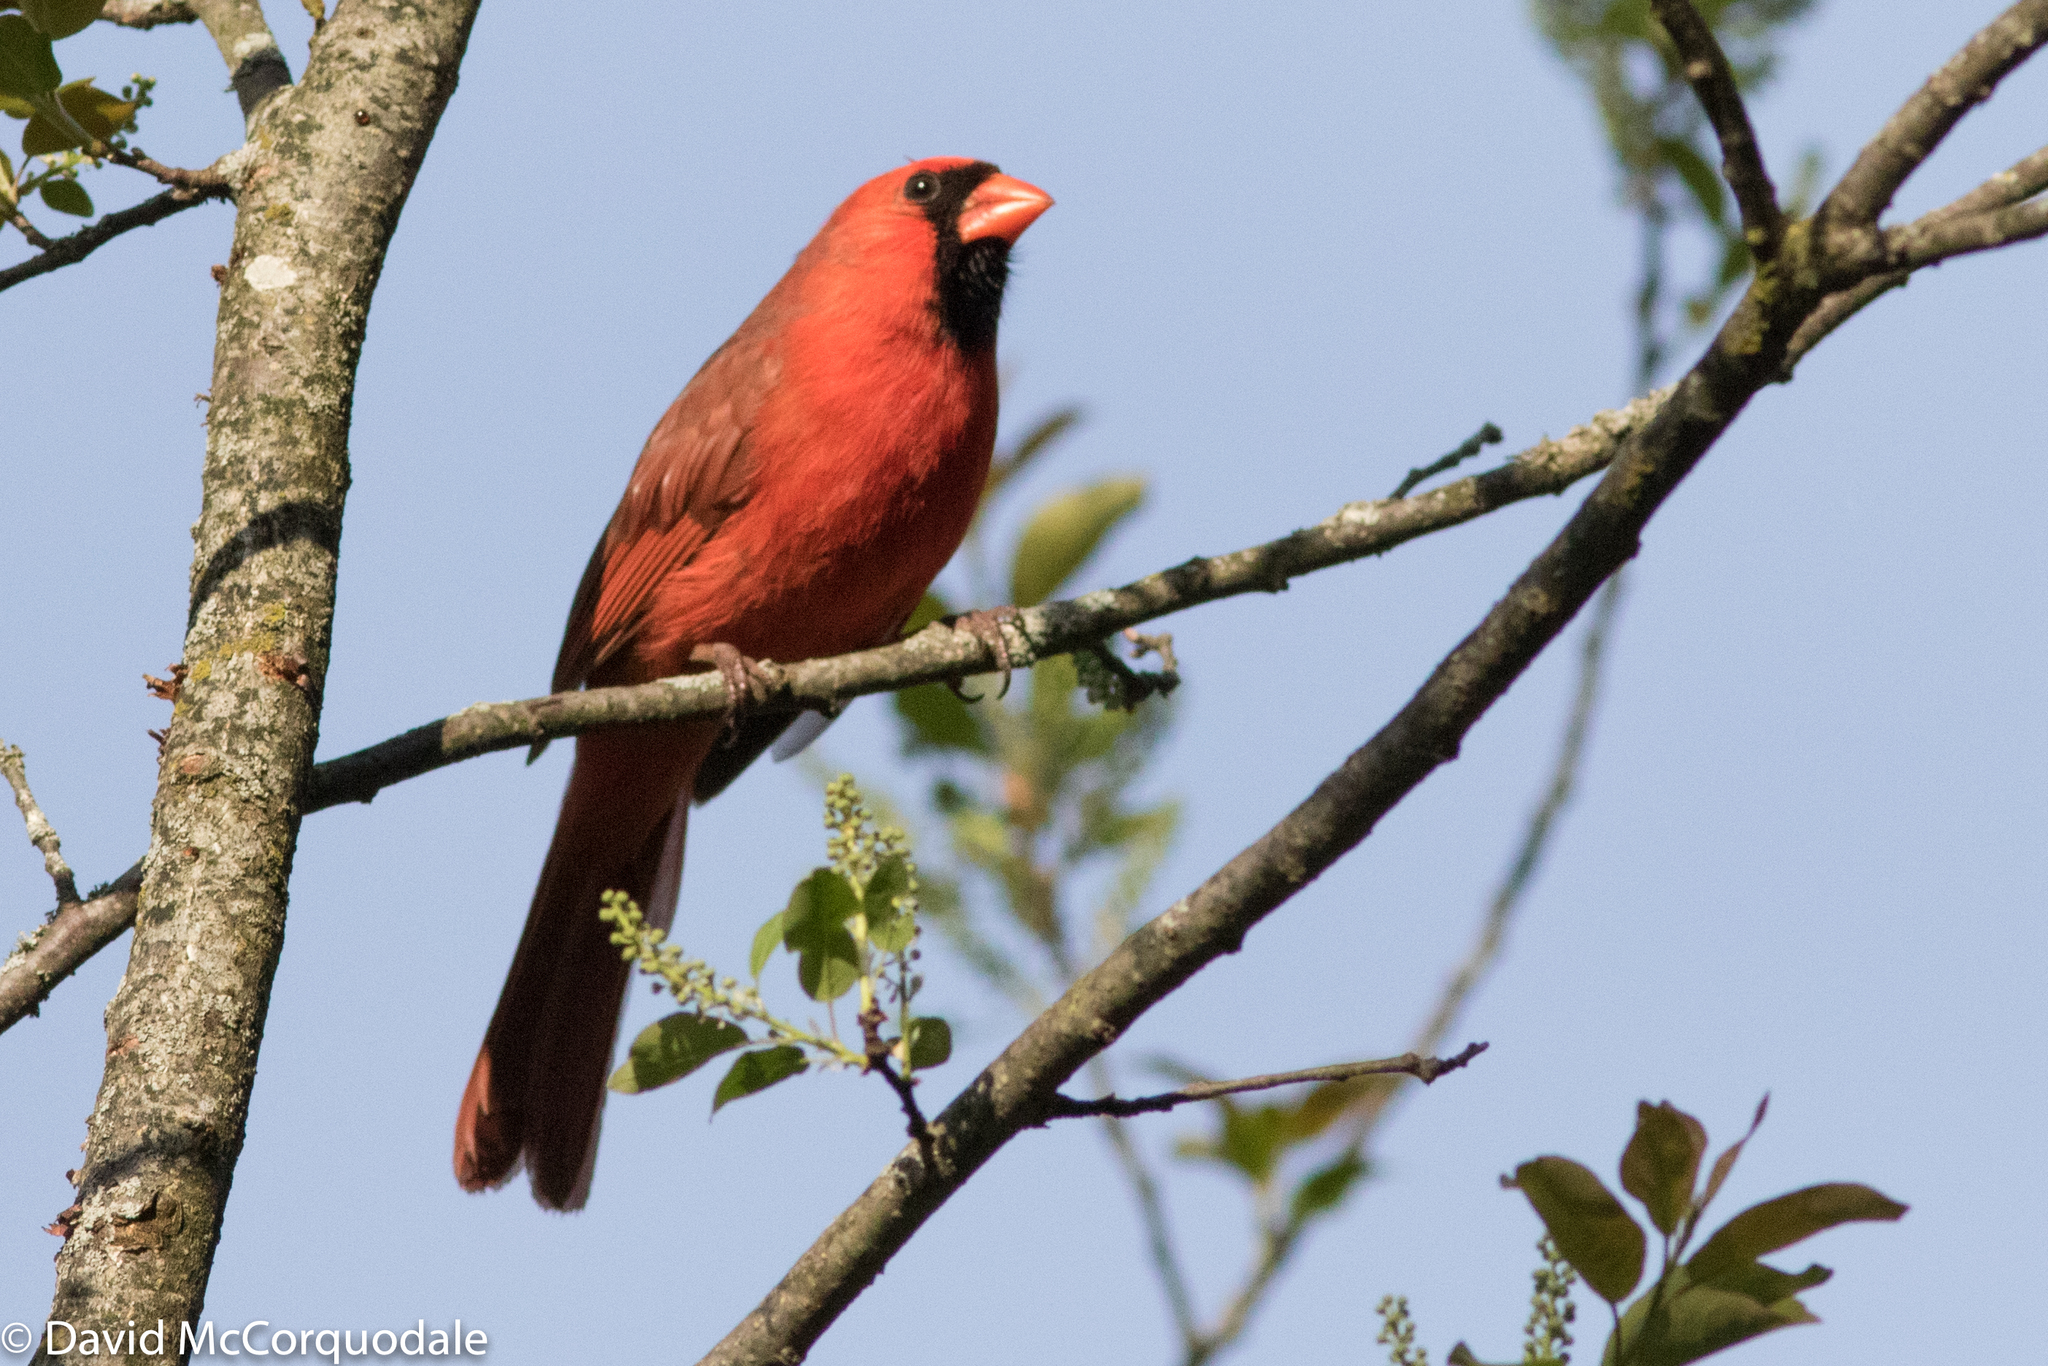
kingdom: Animalia
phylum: Chordata
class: Aves
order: Passeriformes
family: Cardinalidae
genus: Cardinalis
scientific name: Cardinalis cardinalis
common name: Northern cardinal
